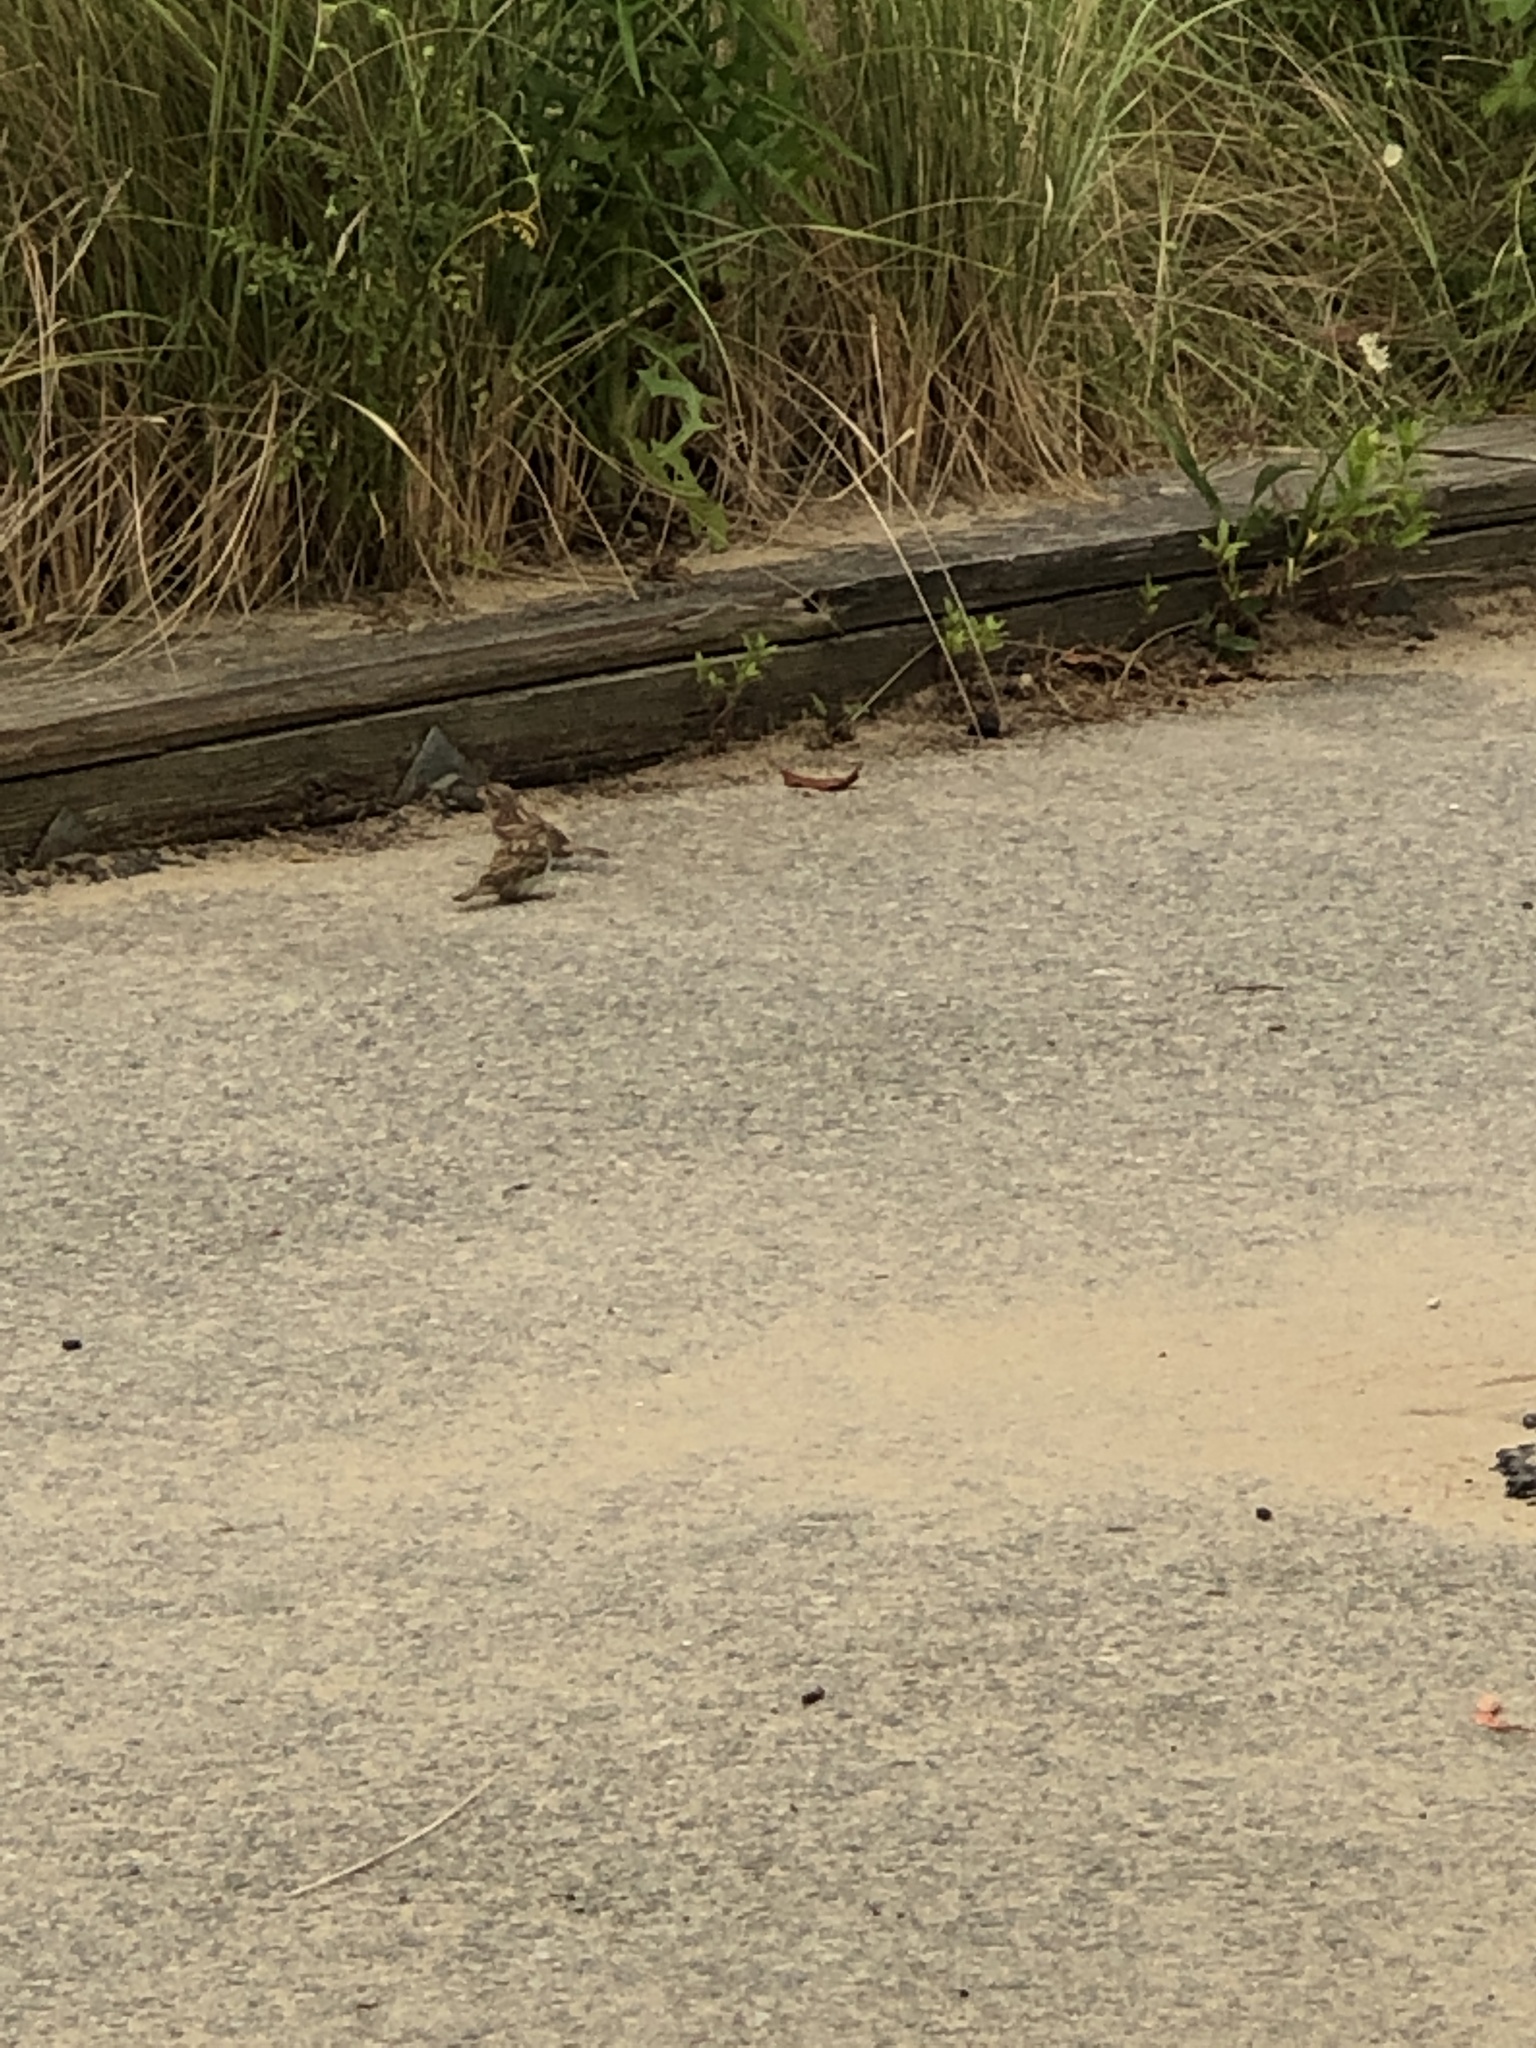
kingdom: Animalia
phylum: Chordata
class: Aves
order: Passeriformes
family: Passeridae
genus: Passer
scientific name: Passer domesticus
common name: House sparrow
